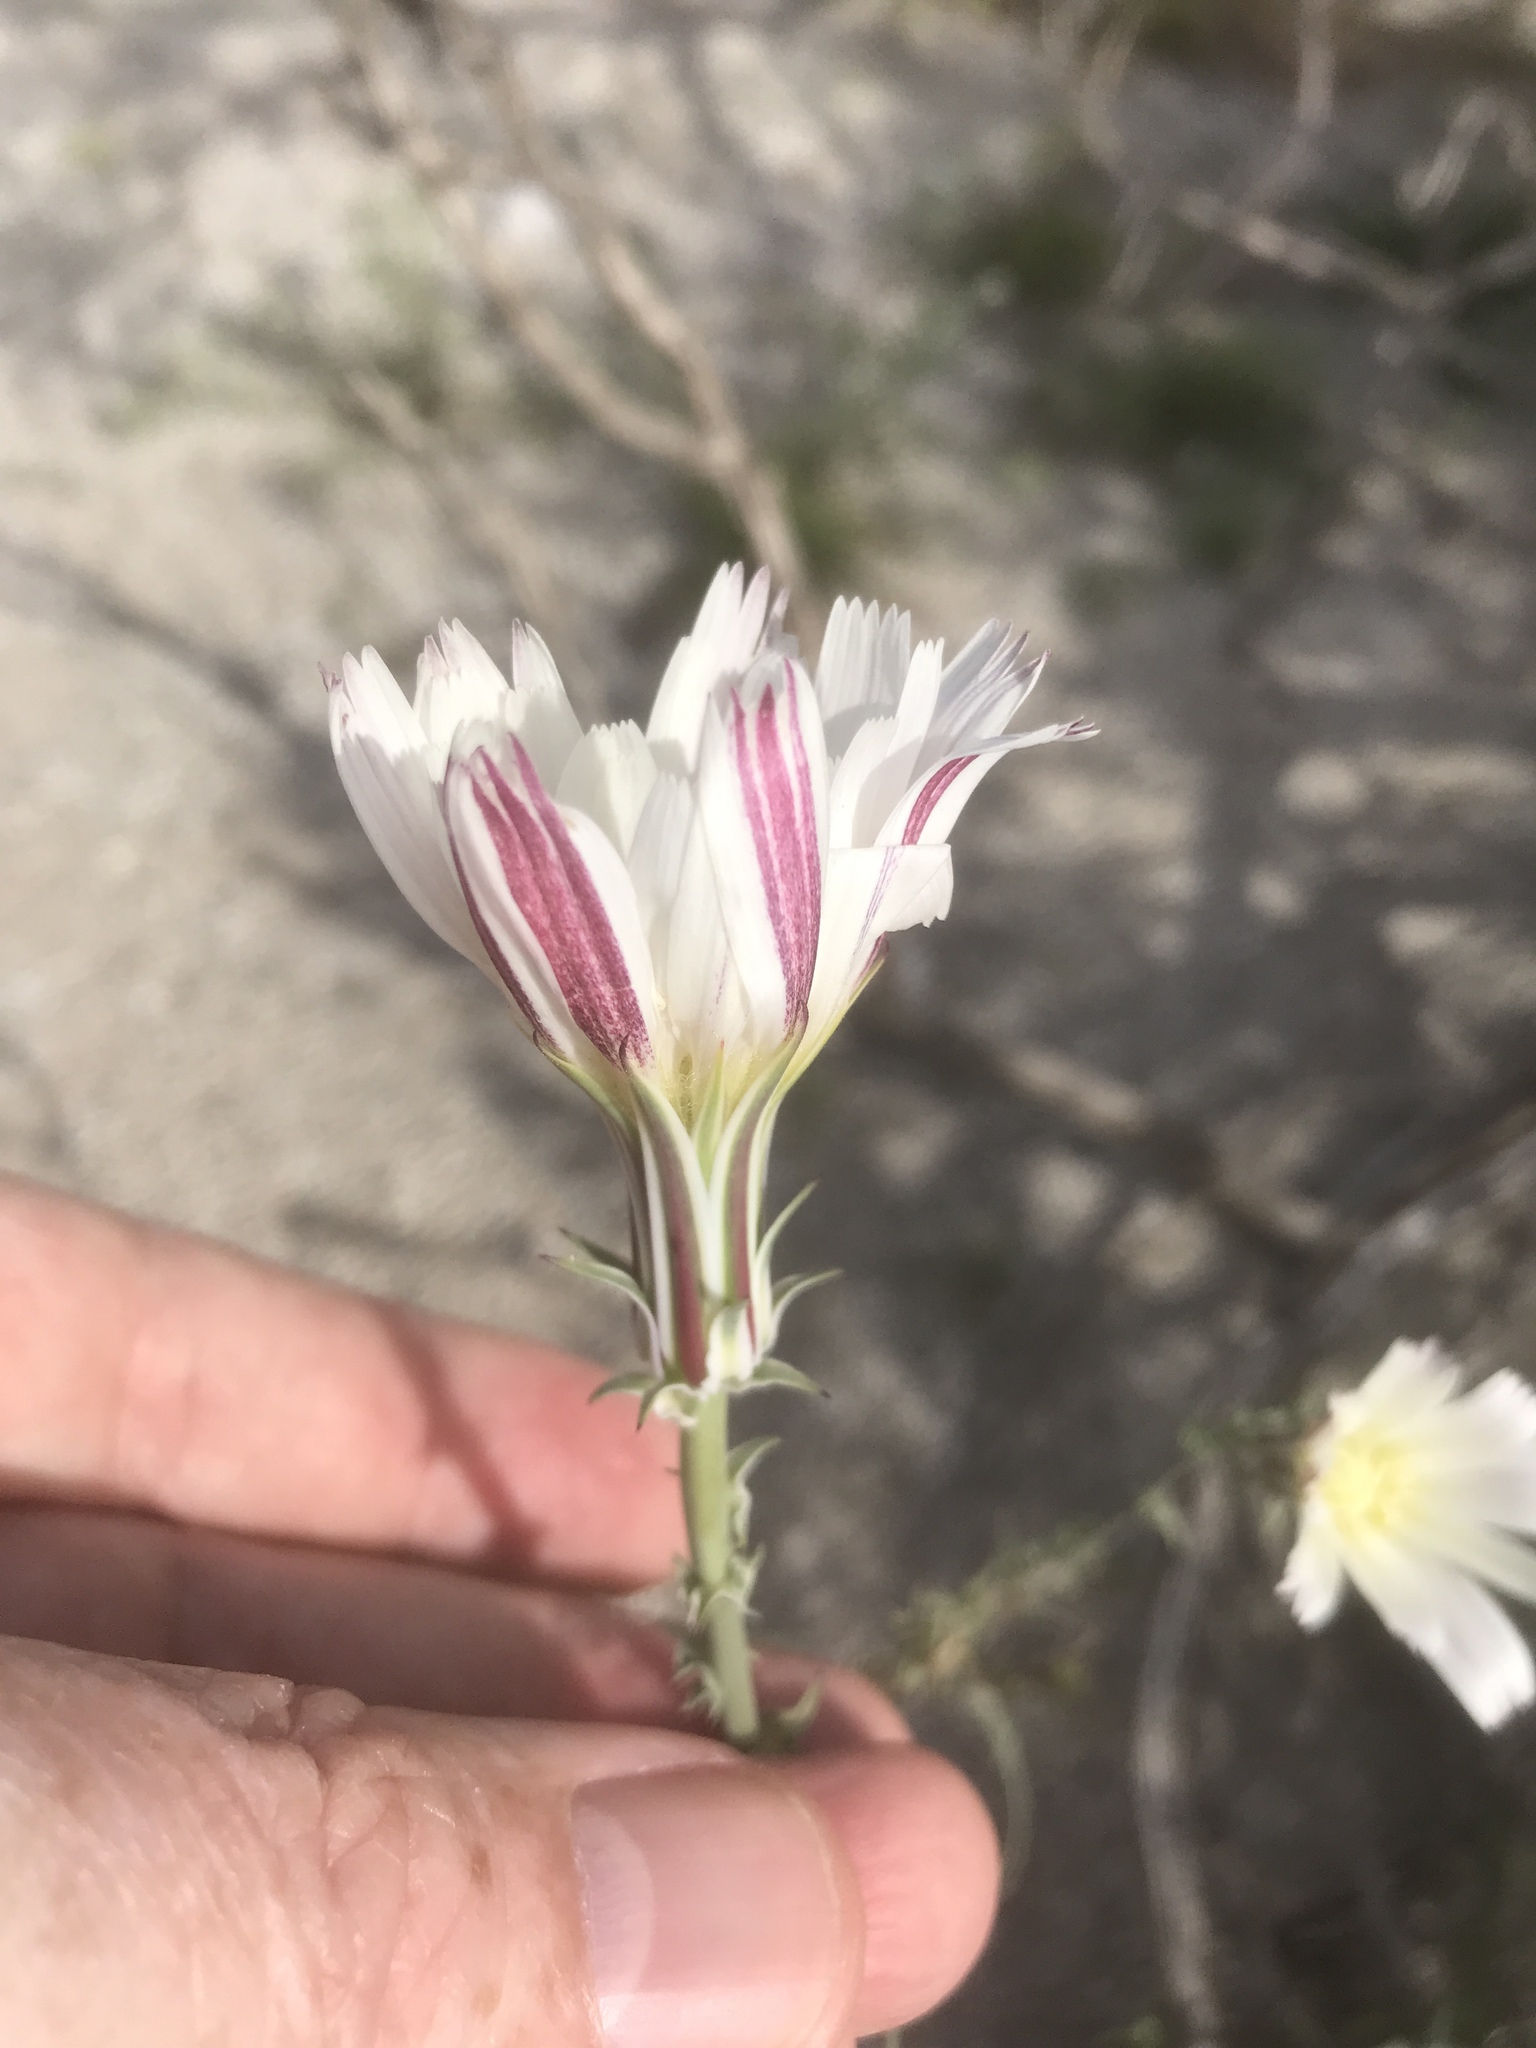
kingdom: Plantae
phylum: Tracheophyta
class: Magnoliopsida
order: Asterales
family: Asteraceae
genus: Rafinesquia
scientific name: Rafinesquia neomexicana
